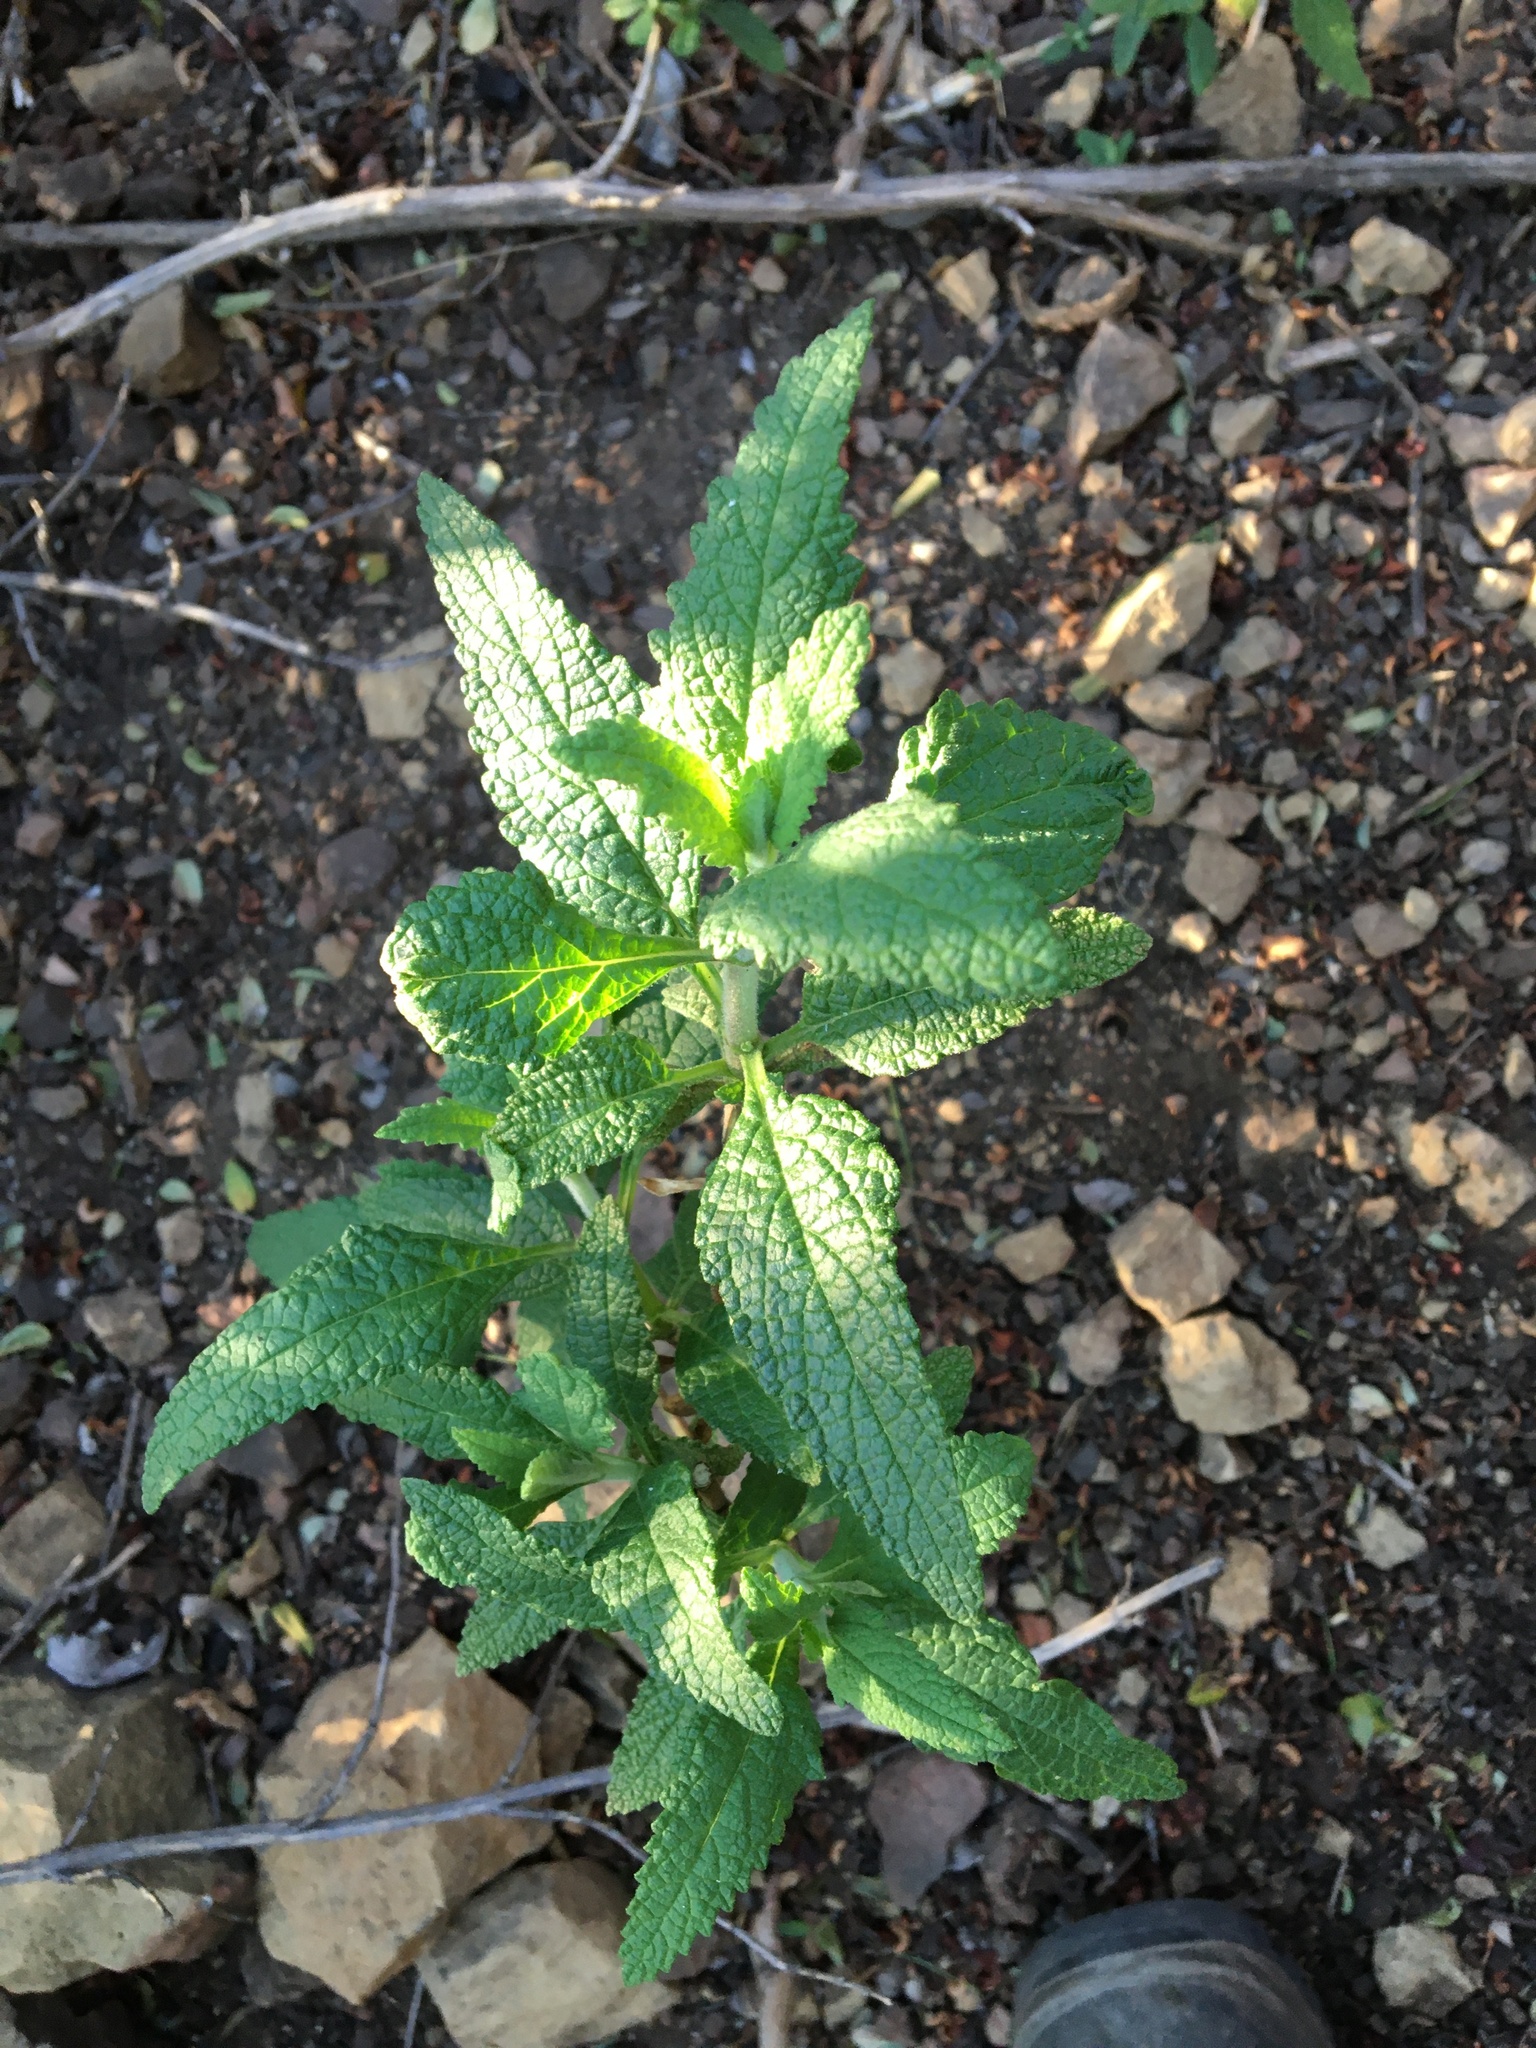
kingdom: Plantae
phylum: Tracheophyta
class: Magnoliopsida
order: Lamiales
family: Lamiaceae
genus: Lepechinia
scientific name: Lepechinia calycina
